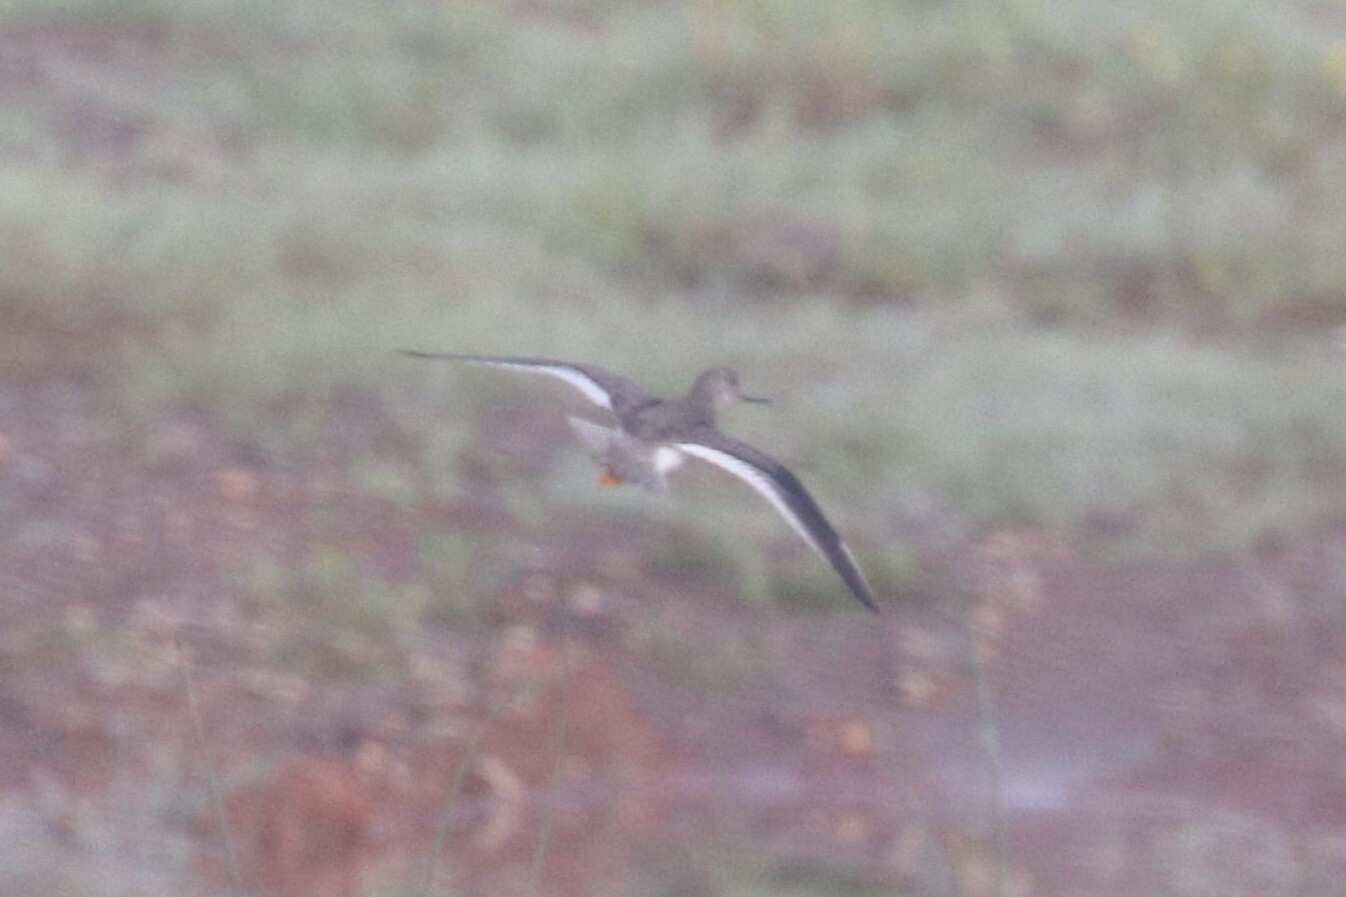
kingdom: Animalia
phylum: Chordata
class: Aves
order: Charadriiformes
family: Scolopacidae
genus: Xenus
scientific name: Xenus cinereus
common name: Terek sandpiper
